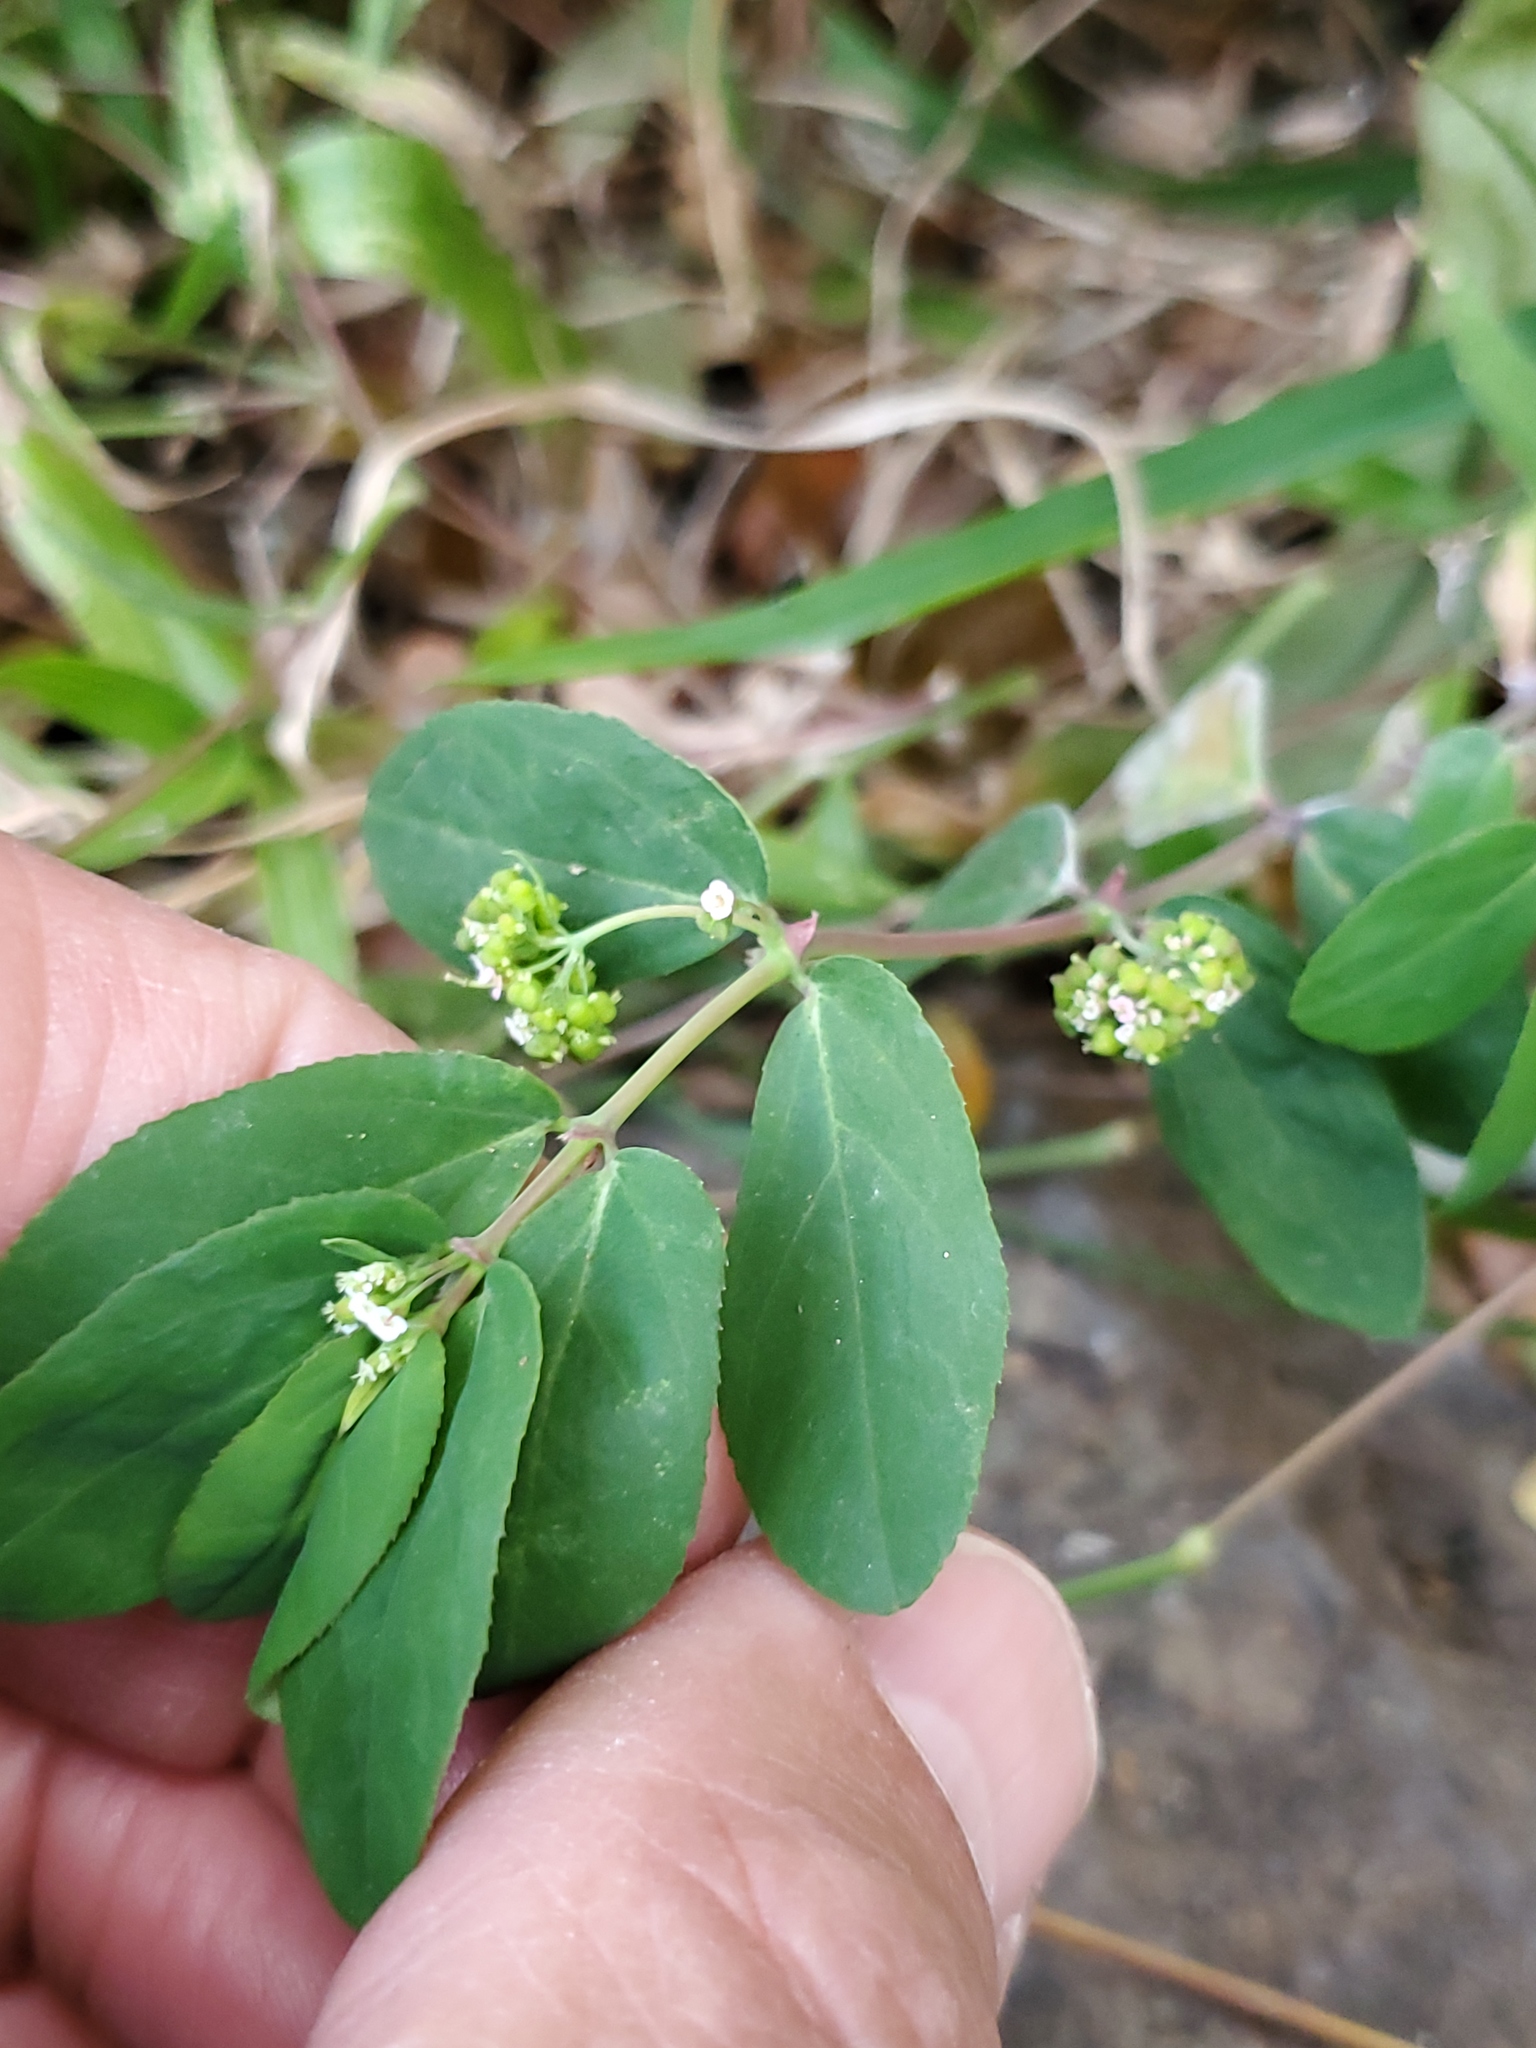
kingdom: Plantae
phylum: Tracheophyta
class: Magnoliopsida
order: Malpighiales
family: Euphorbiaceae
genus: Euphorbia
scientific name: Euphorbia hypericifolia
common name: Graceful sandmat
